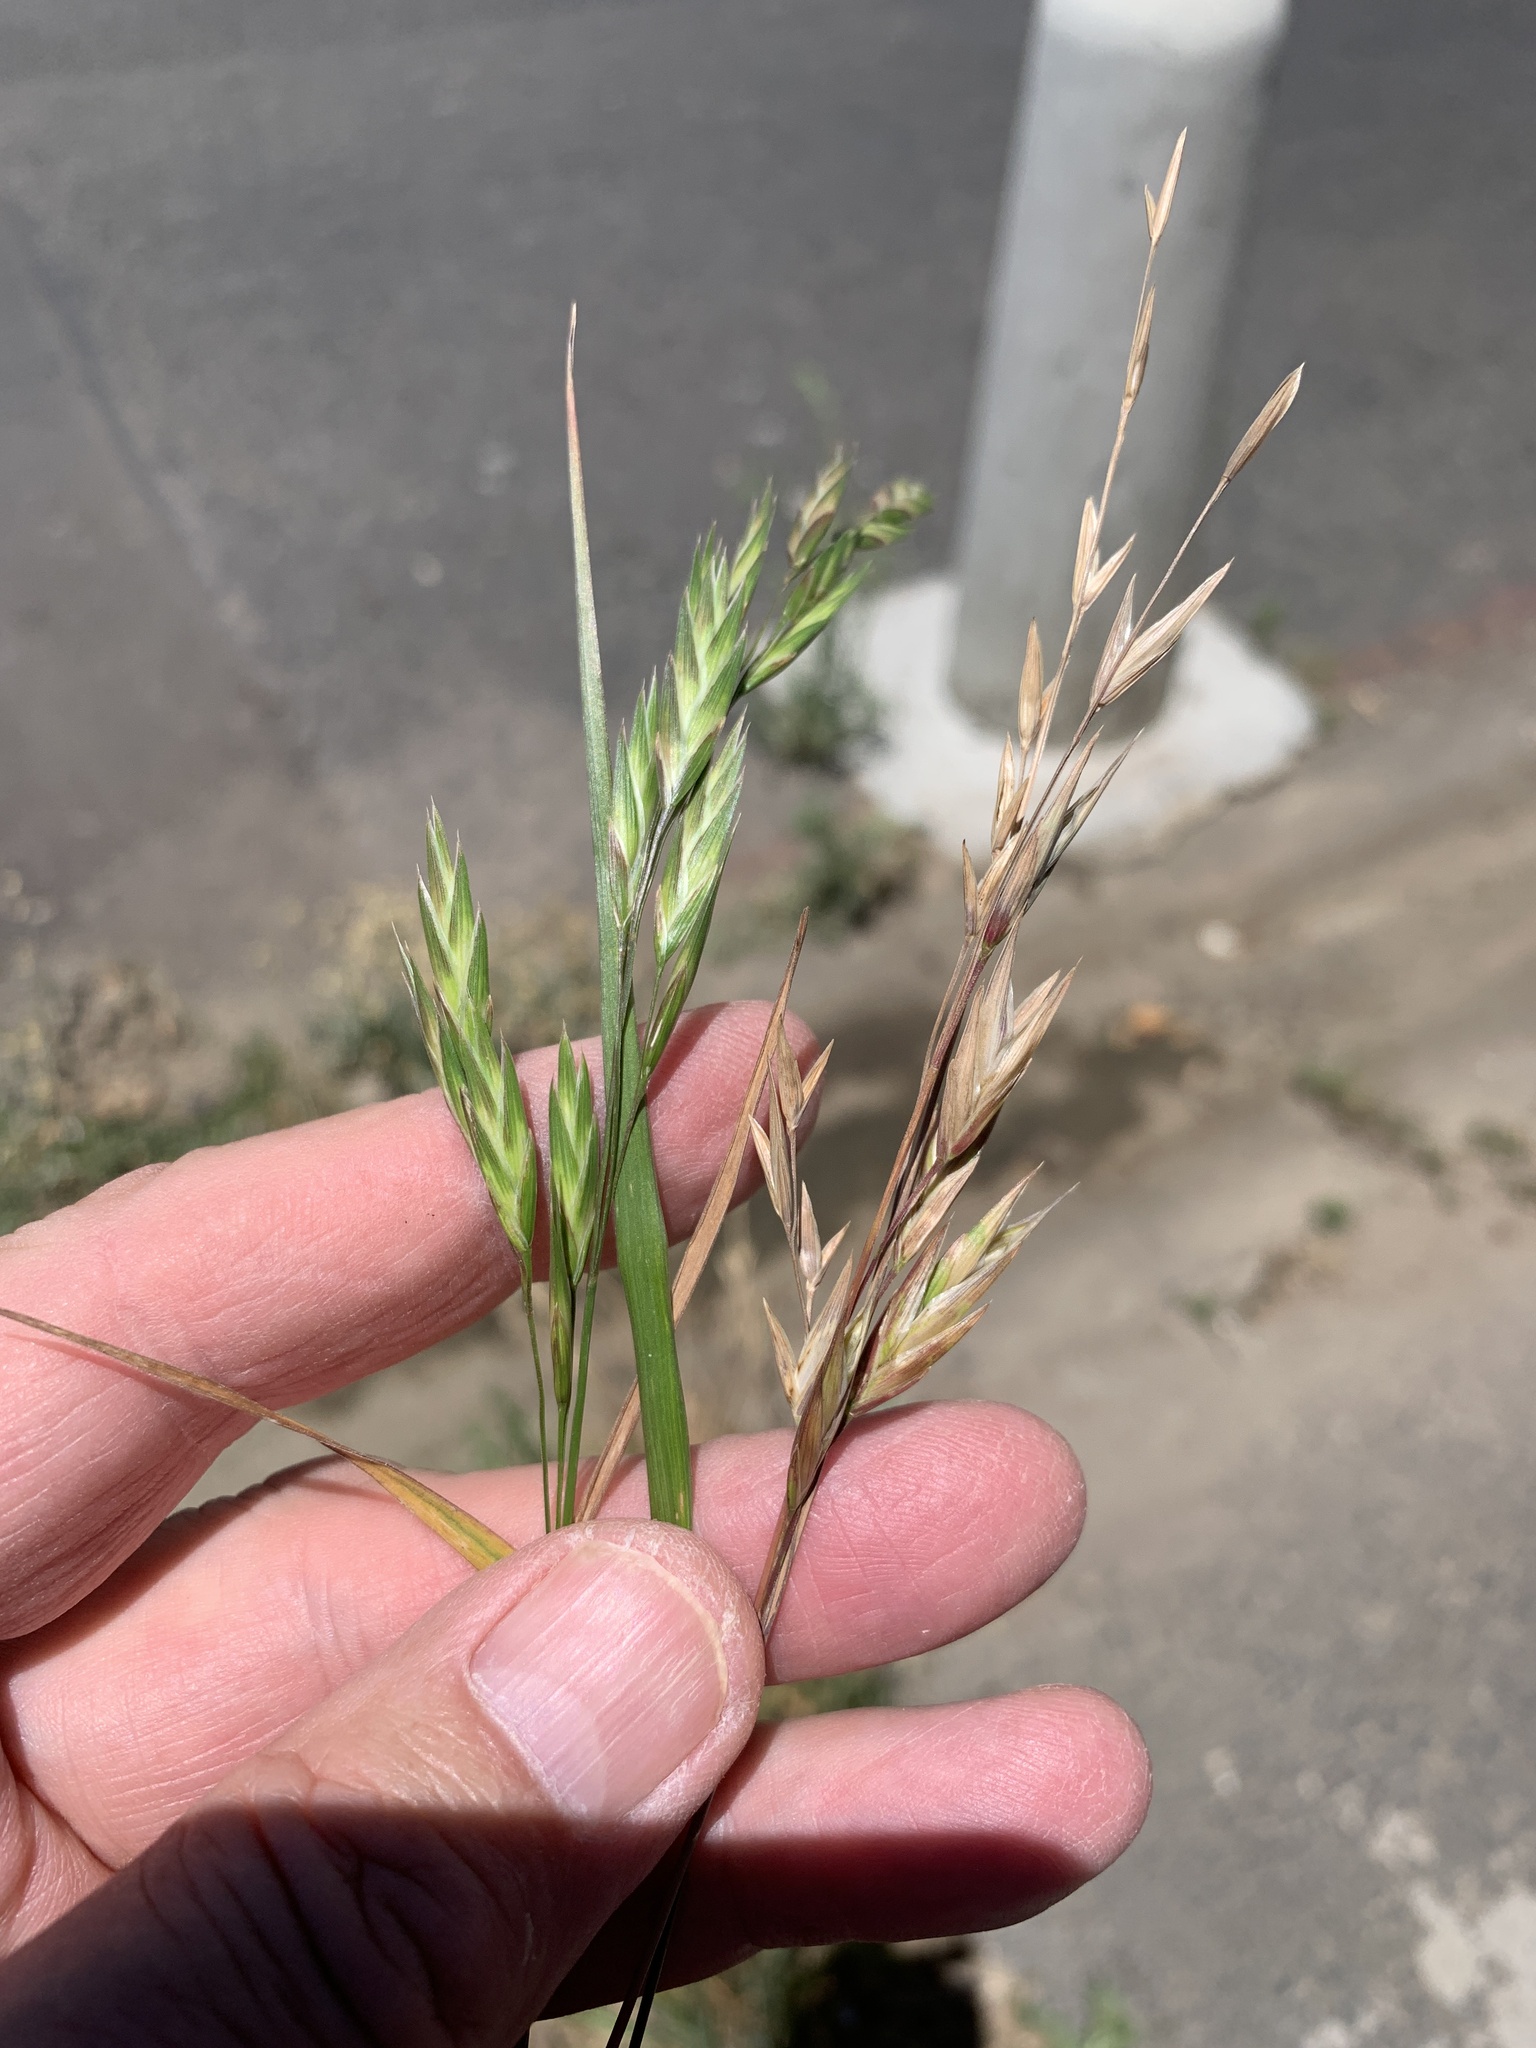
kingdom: Plantae
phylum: Tracheophyta
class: Liliopsida
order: Poales
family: Poaceae
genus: Bromus
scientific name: Bromus catharticus
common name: Rescuegrass
